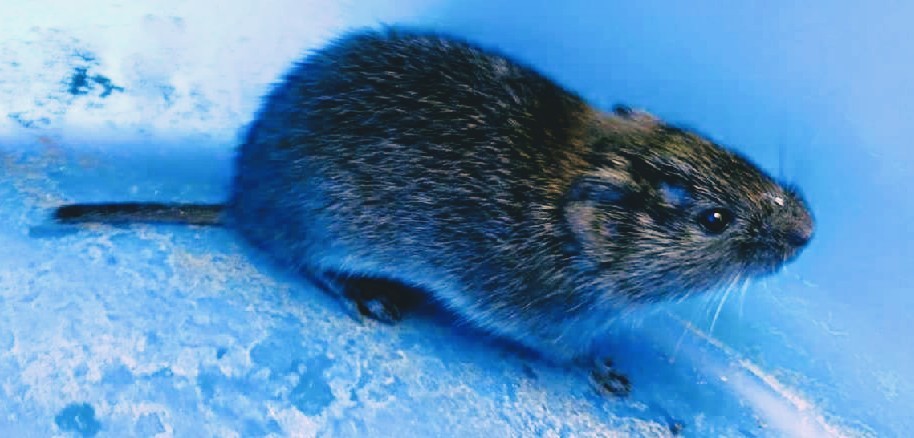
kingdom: Animalia
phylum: Chordata
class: Mammalia
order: Rodentia
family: Cricetidae
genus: Microtus
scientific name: Microtus pennsylvanicus
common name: Meadow vole
